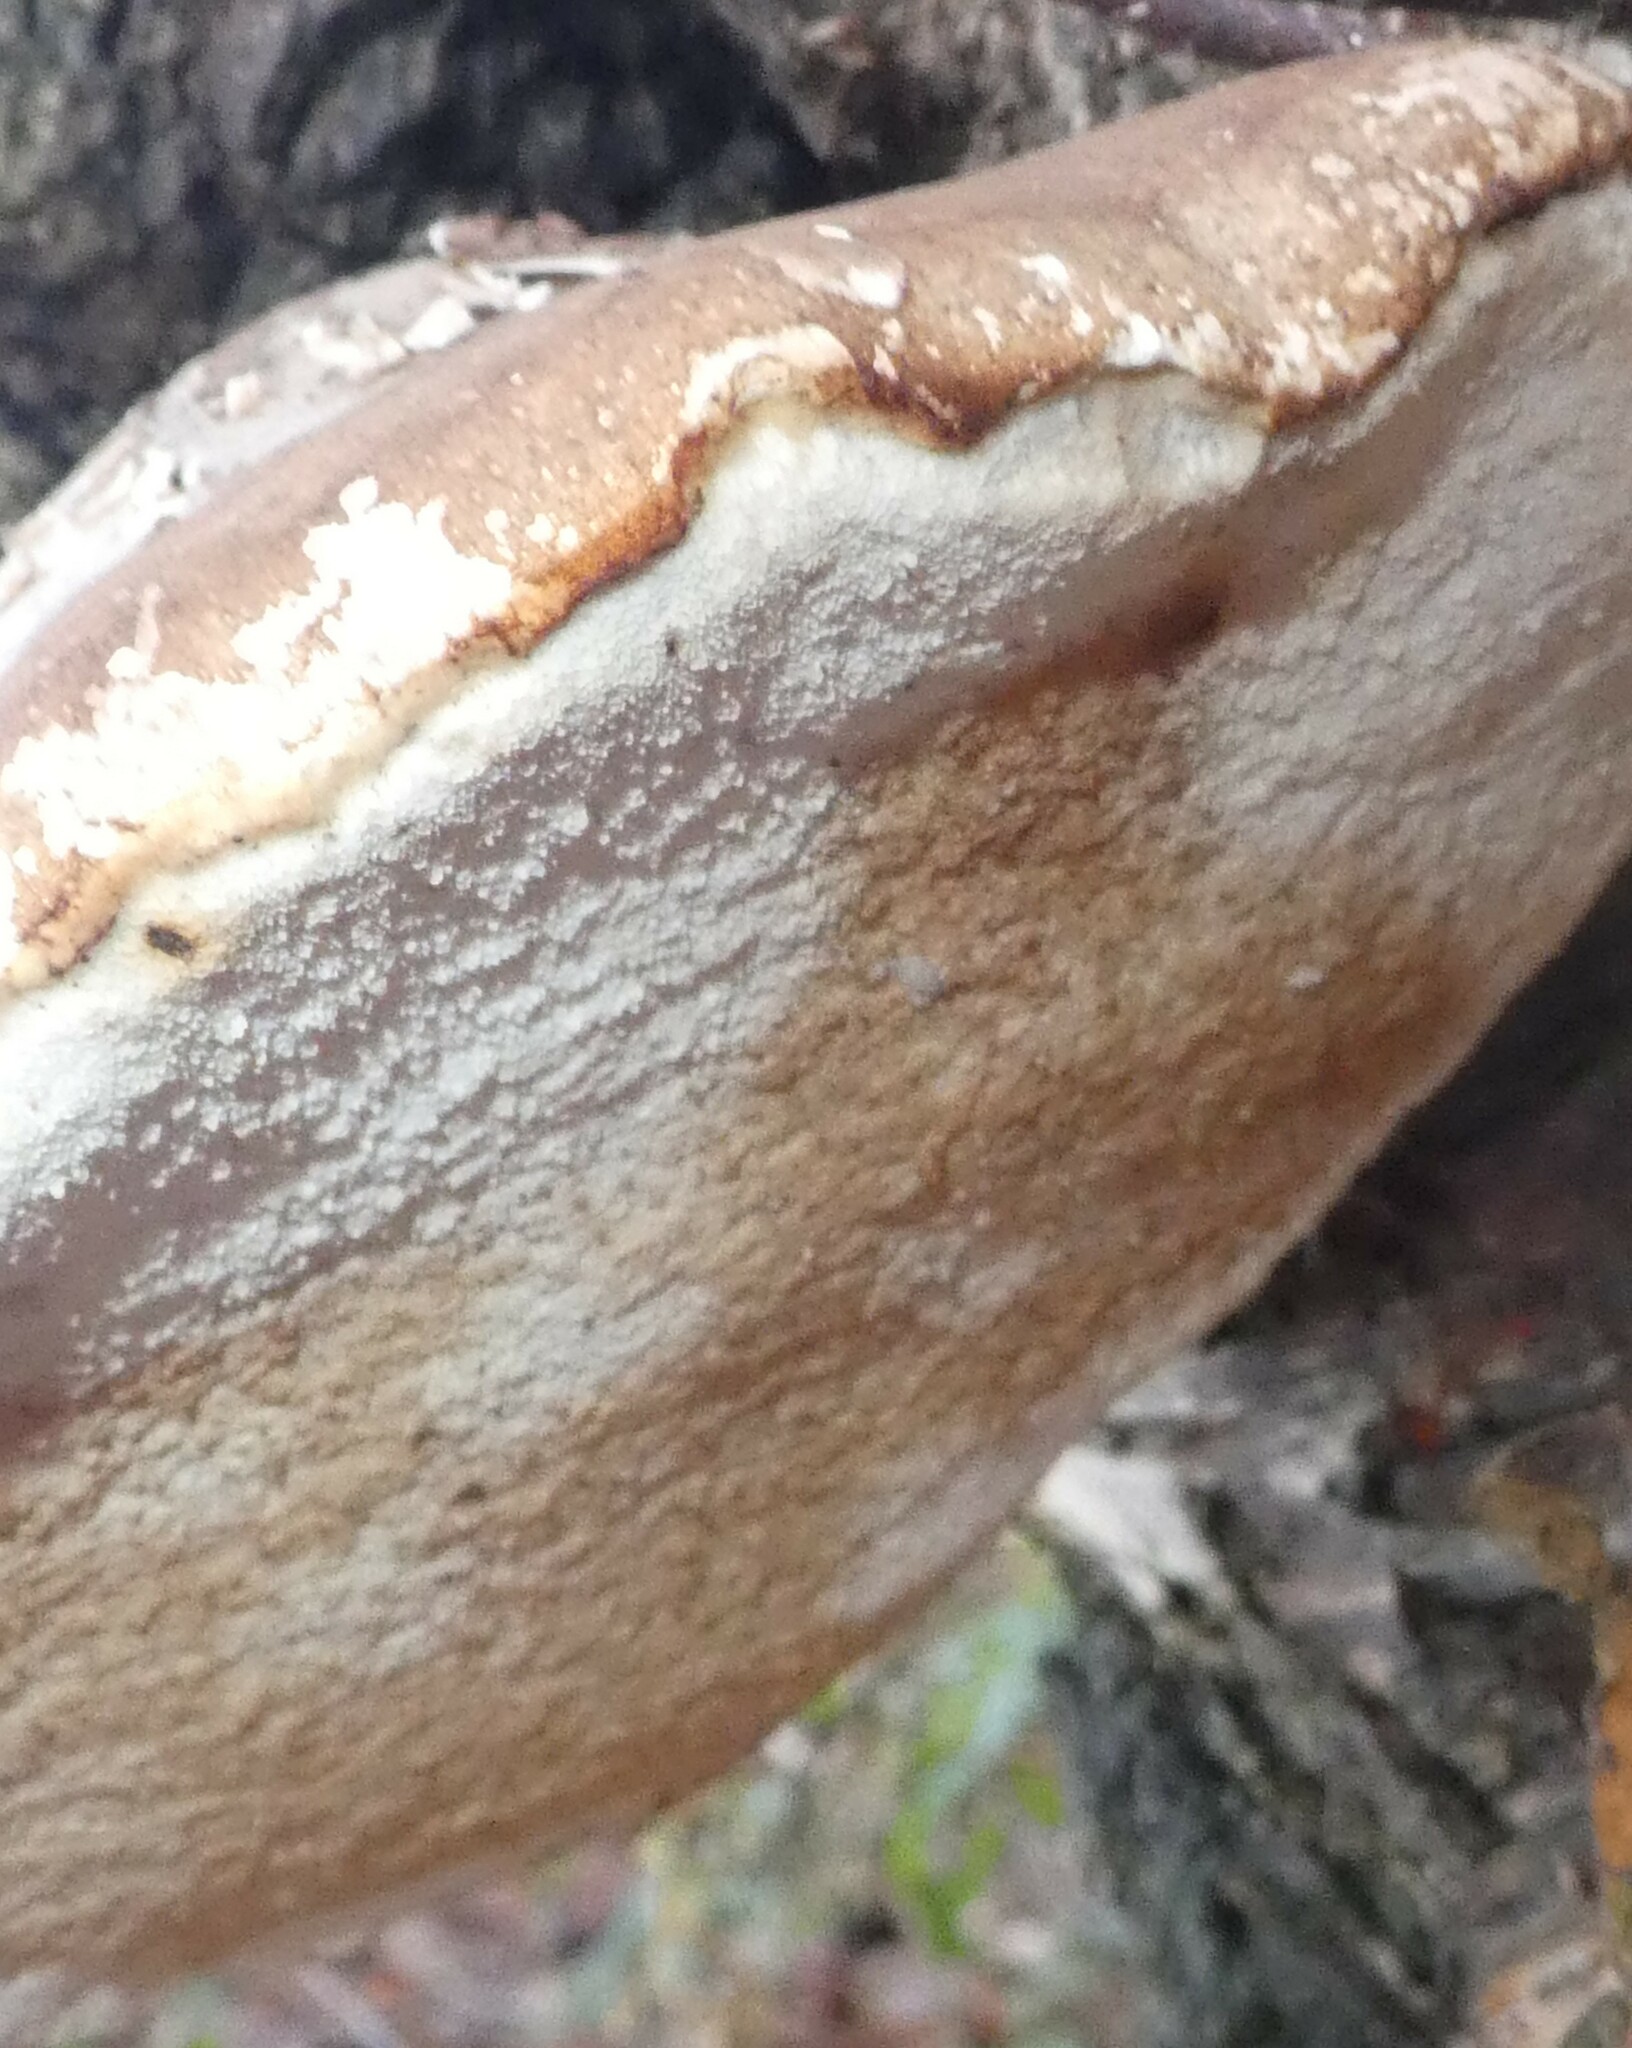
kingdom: Fungi
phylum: Basidiomycota
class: Agaricomycetes
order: Polyporales
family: Fomitopsidaceae
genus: Fomitopsis
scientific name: Fomitopsis betulina
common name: Birch polypore
